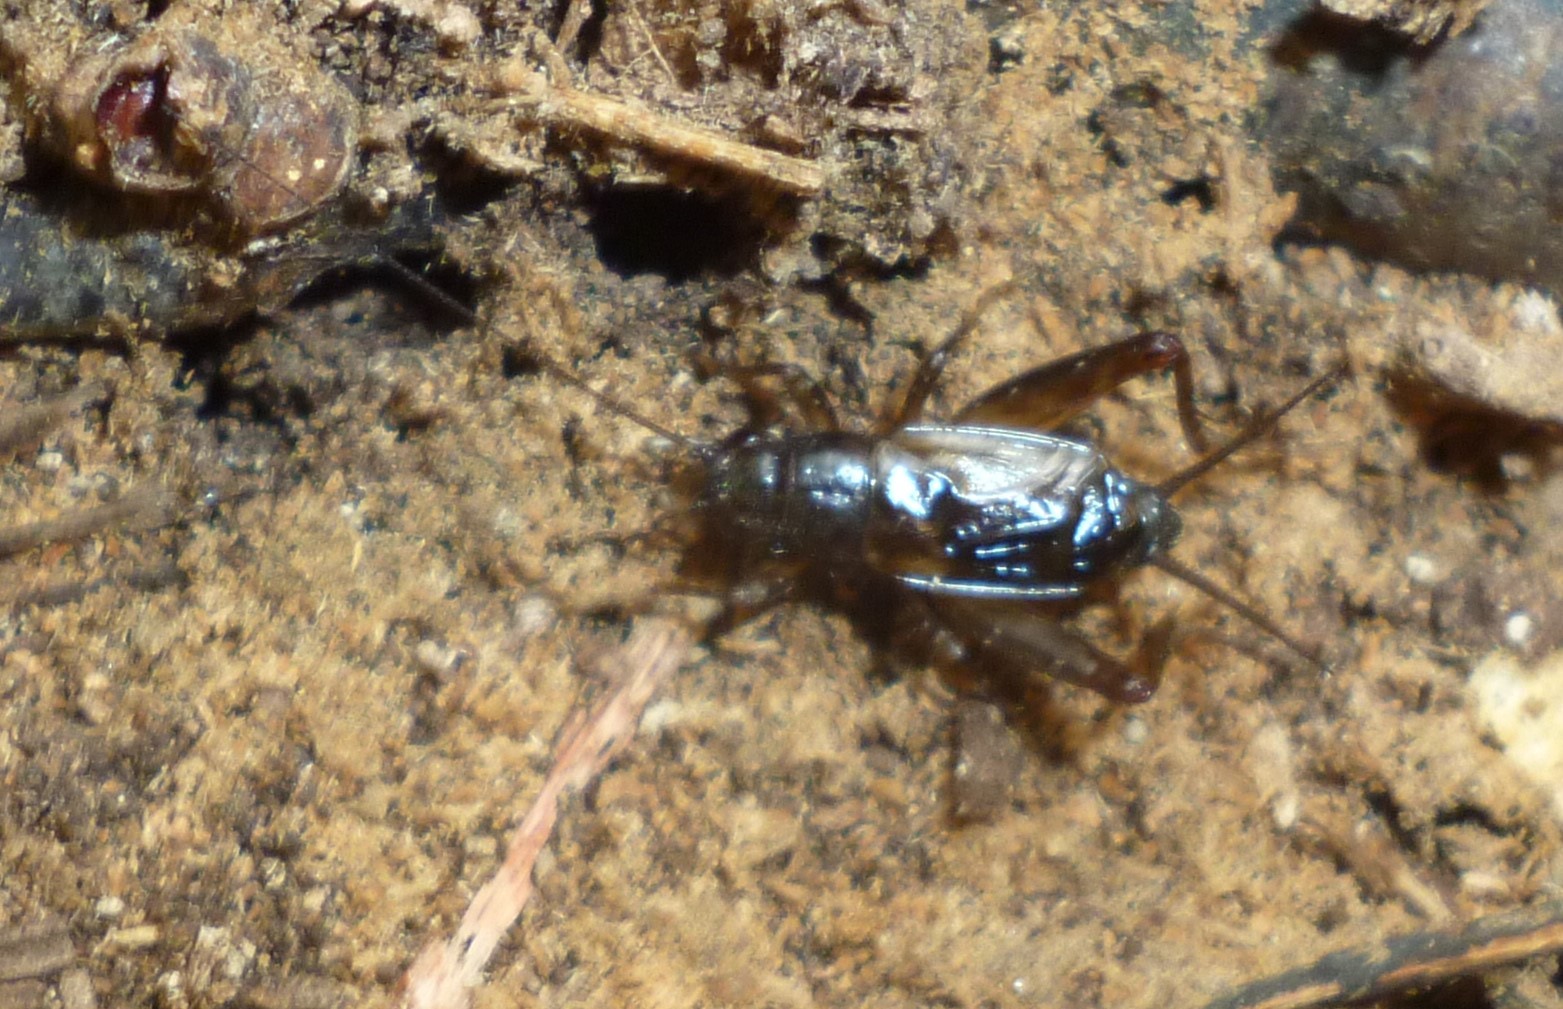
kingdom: Animalia
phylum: Arthropoda
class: Insecta
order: Orthoptera
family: Trigonidiidae
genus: Eunemobius
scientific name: Eunemobius carolinus
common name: Carolina ground cricket
